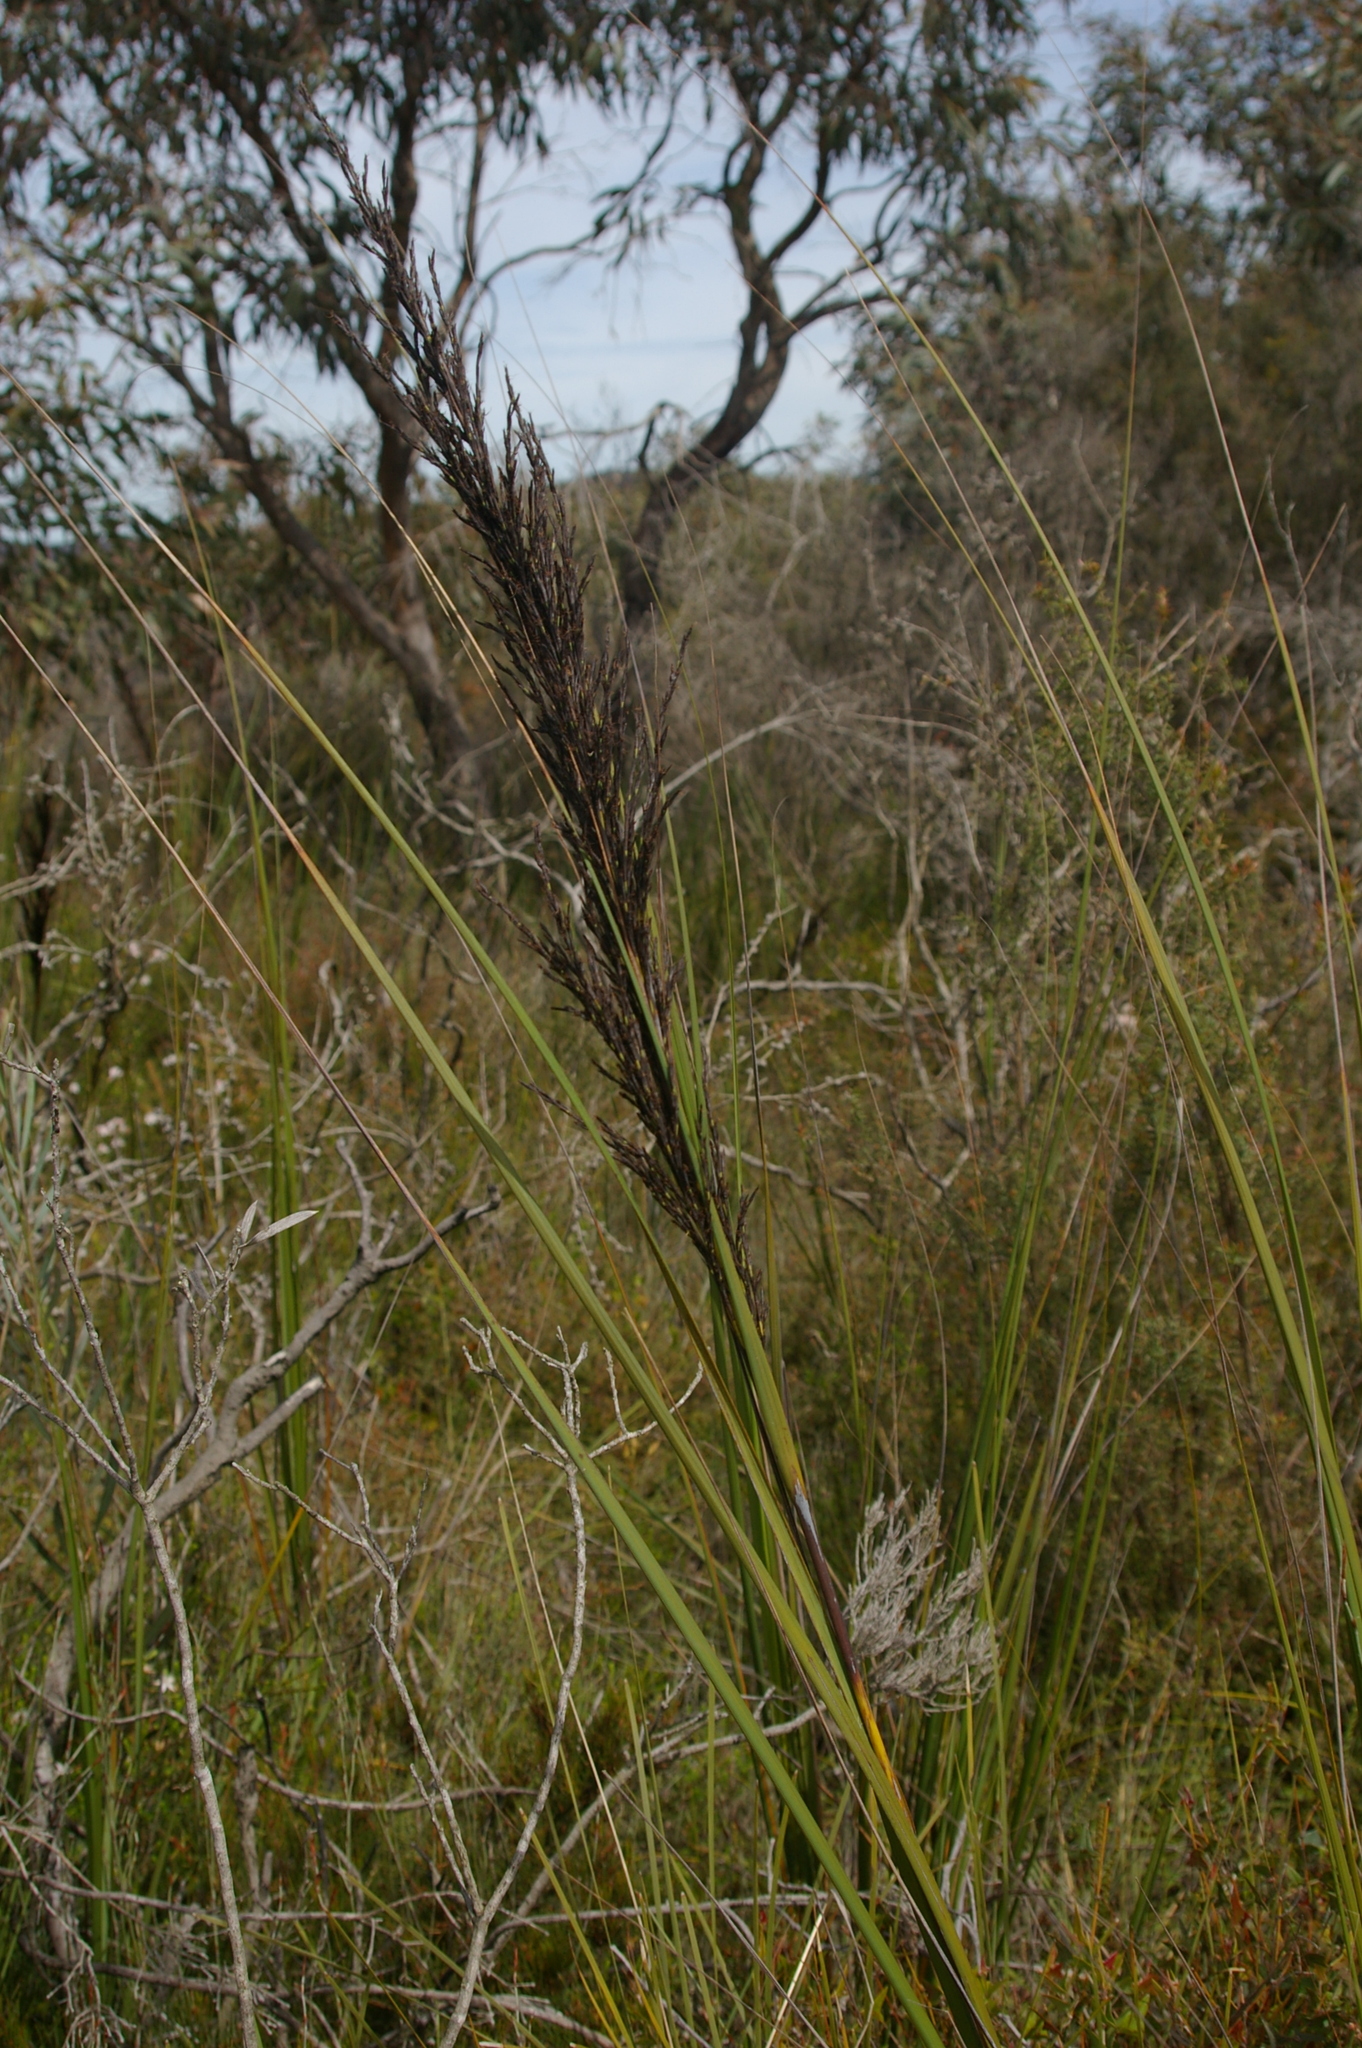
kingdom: Plantae
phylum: Tracheophyta
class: Liliopsida
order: Poales
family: Cyperaceae
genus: Gahnia
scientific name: Gahnia radula
